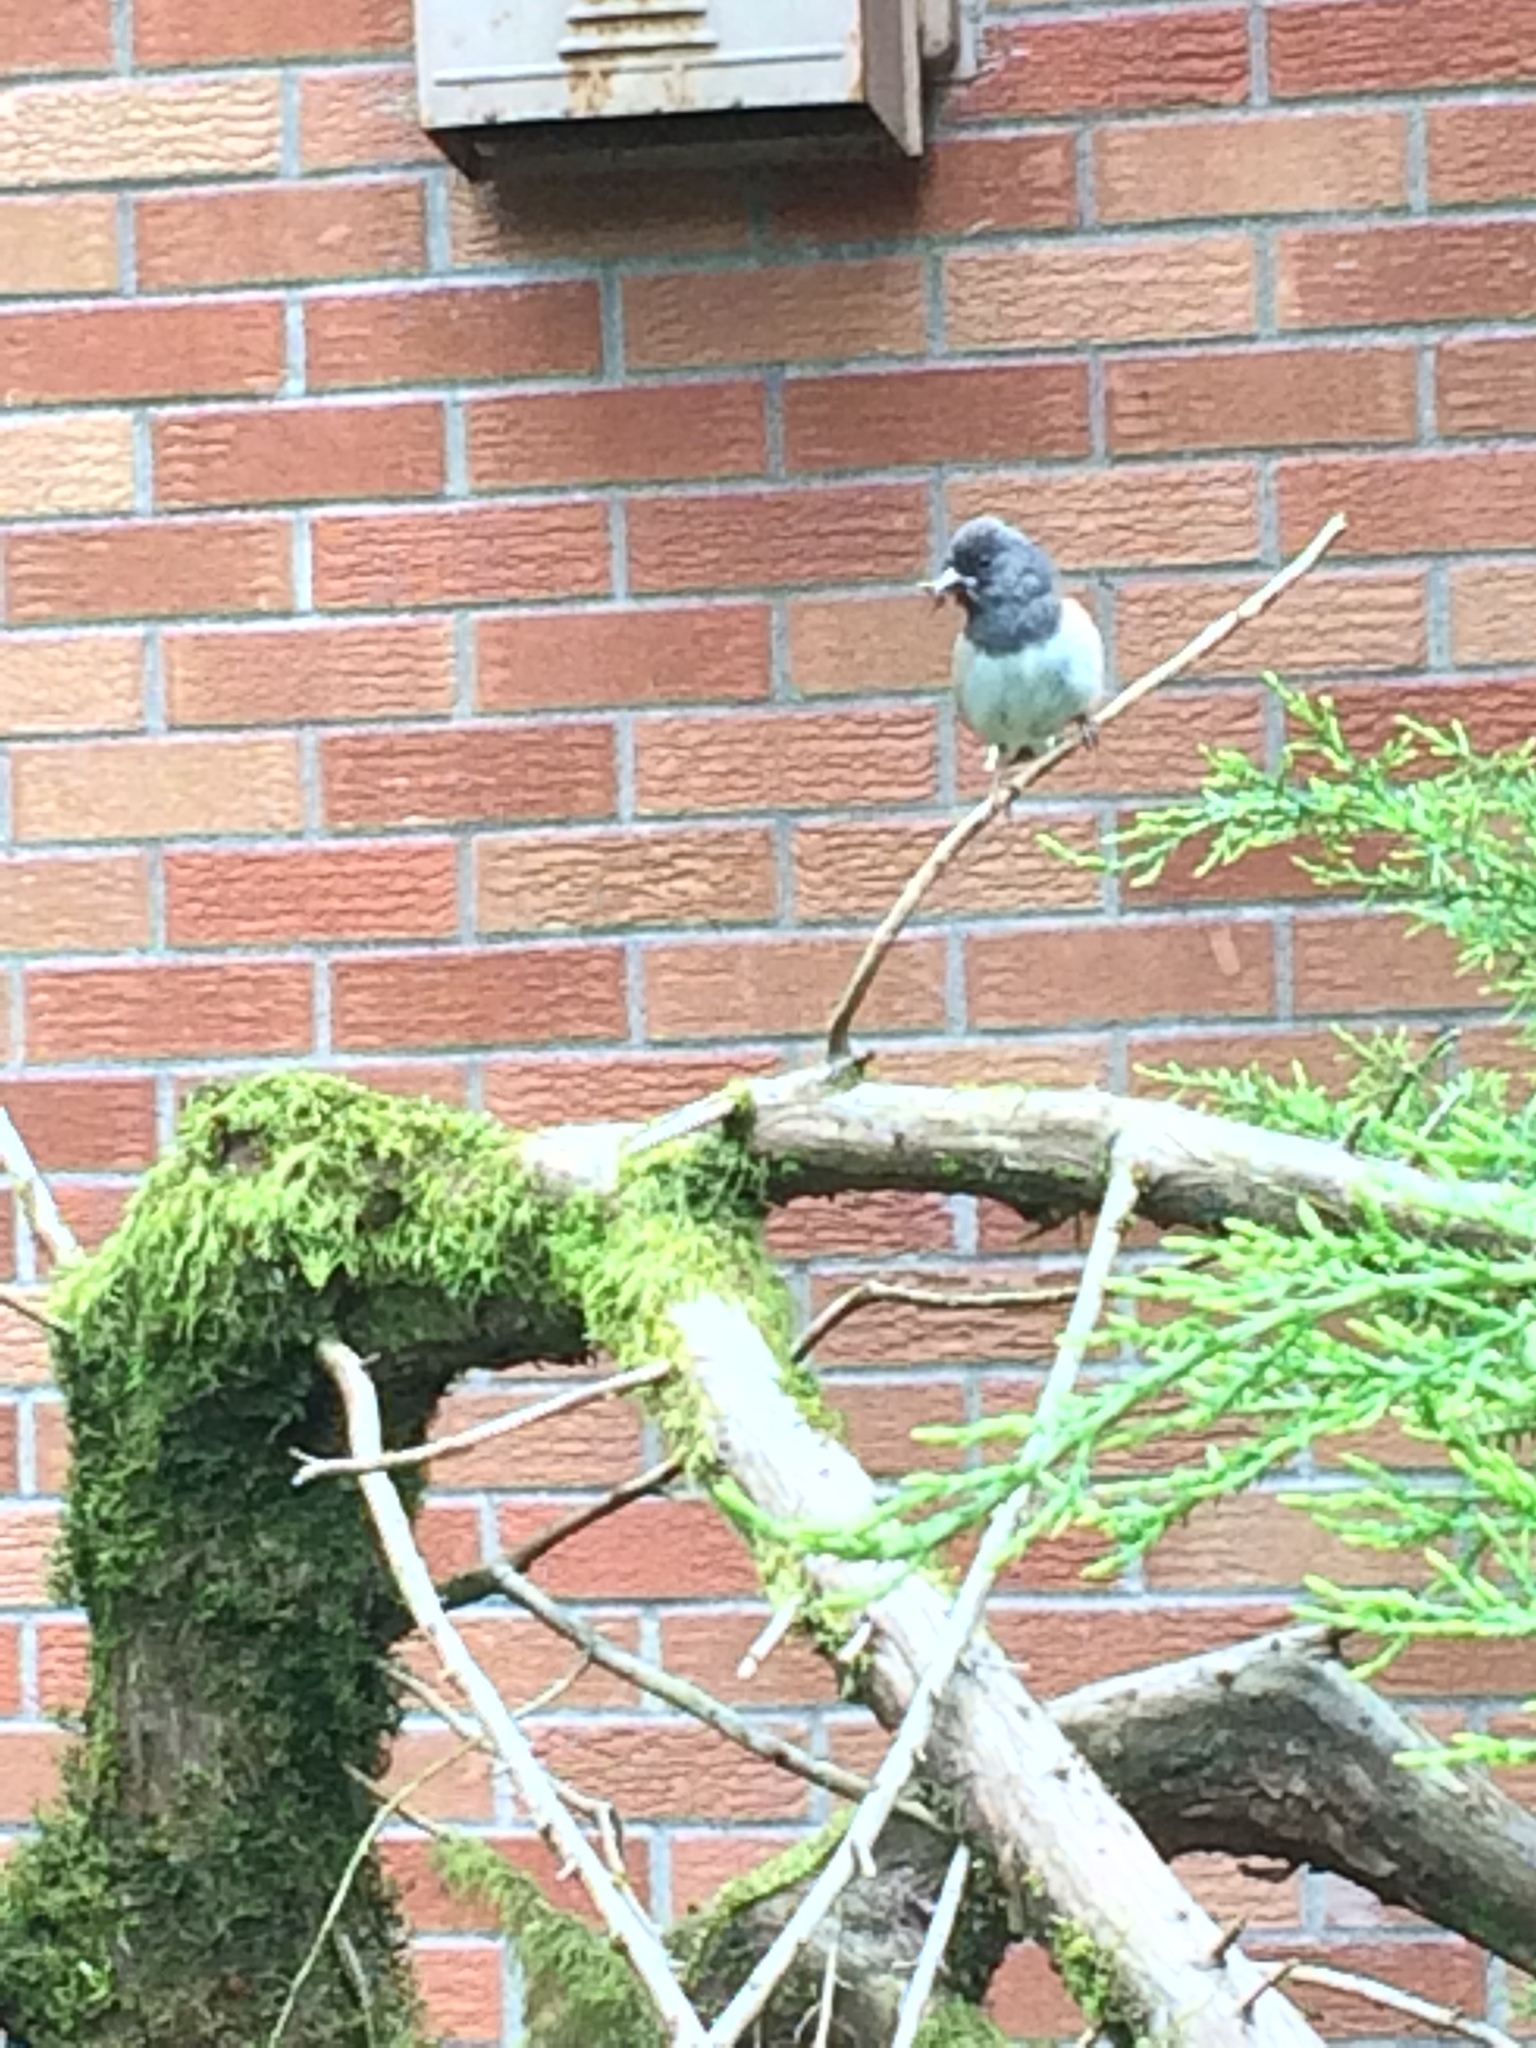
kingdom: Animalia
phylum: Chordata
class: Aves
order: Passeriformes
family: Passerellidae
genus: Junco
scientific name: Junco hyemalis
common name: Dark-eyed junco
